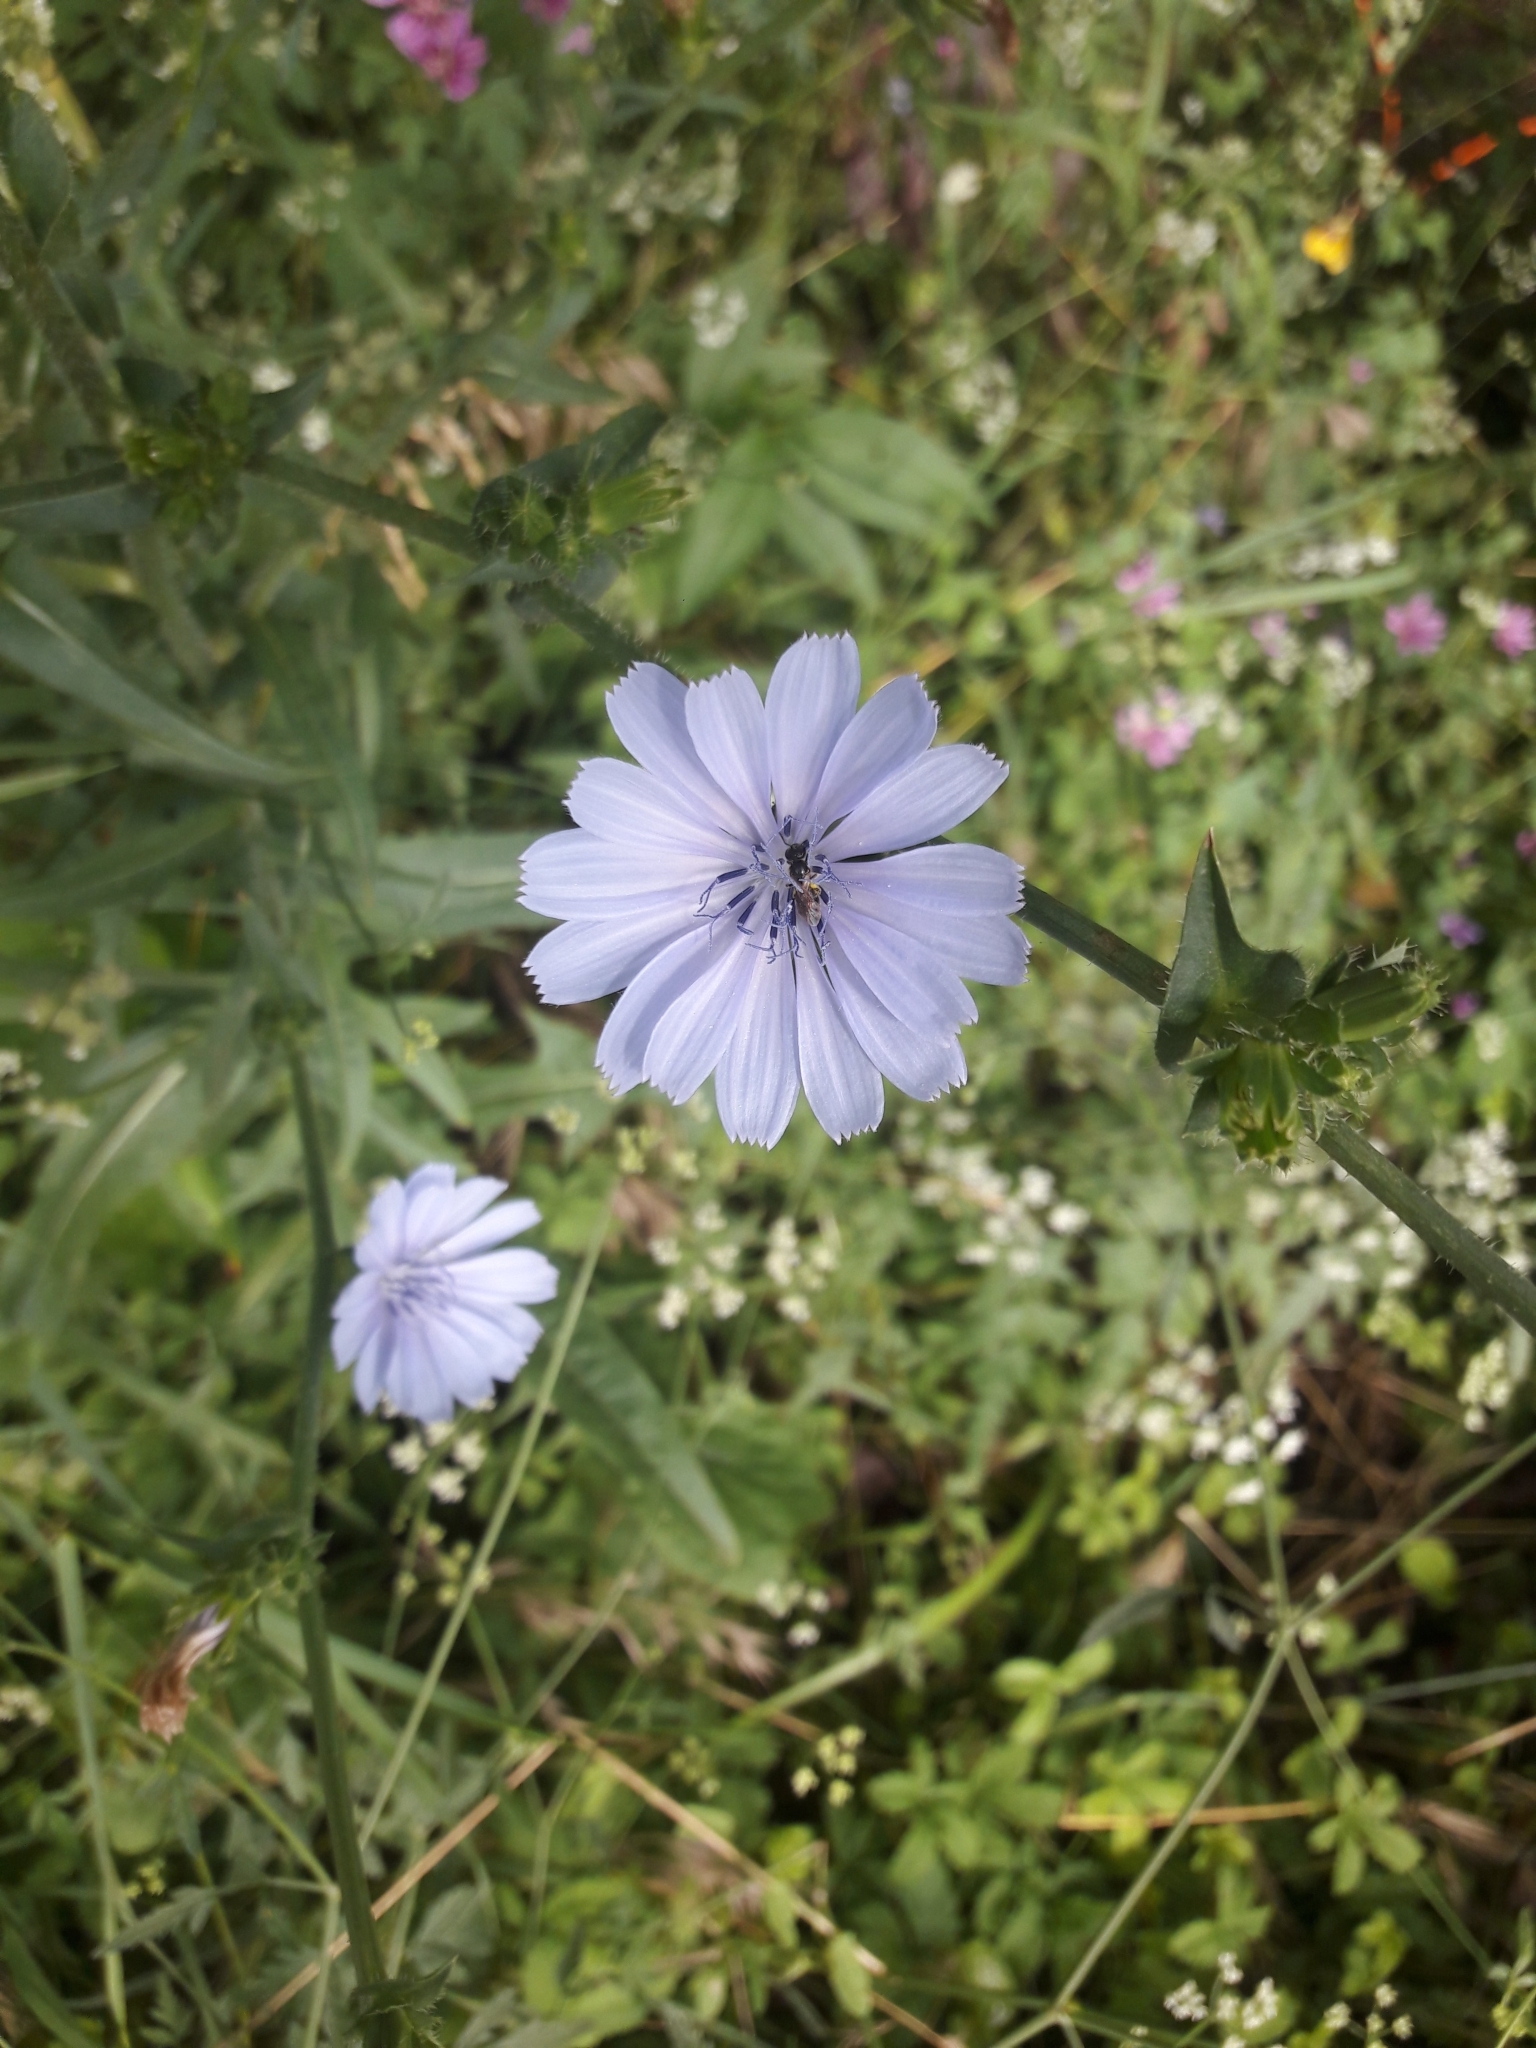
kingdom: Plantae
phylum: Tracheophyta
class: Magnoliopsida
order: Asterales
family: Asteraceae
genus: Cichorium
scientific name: Cichorium intybus
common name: Chicory
